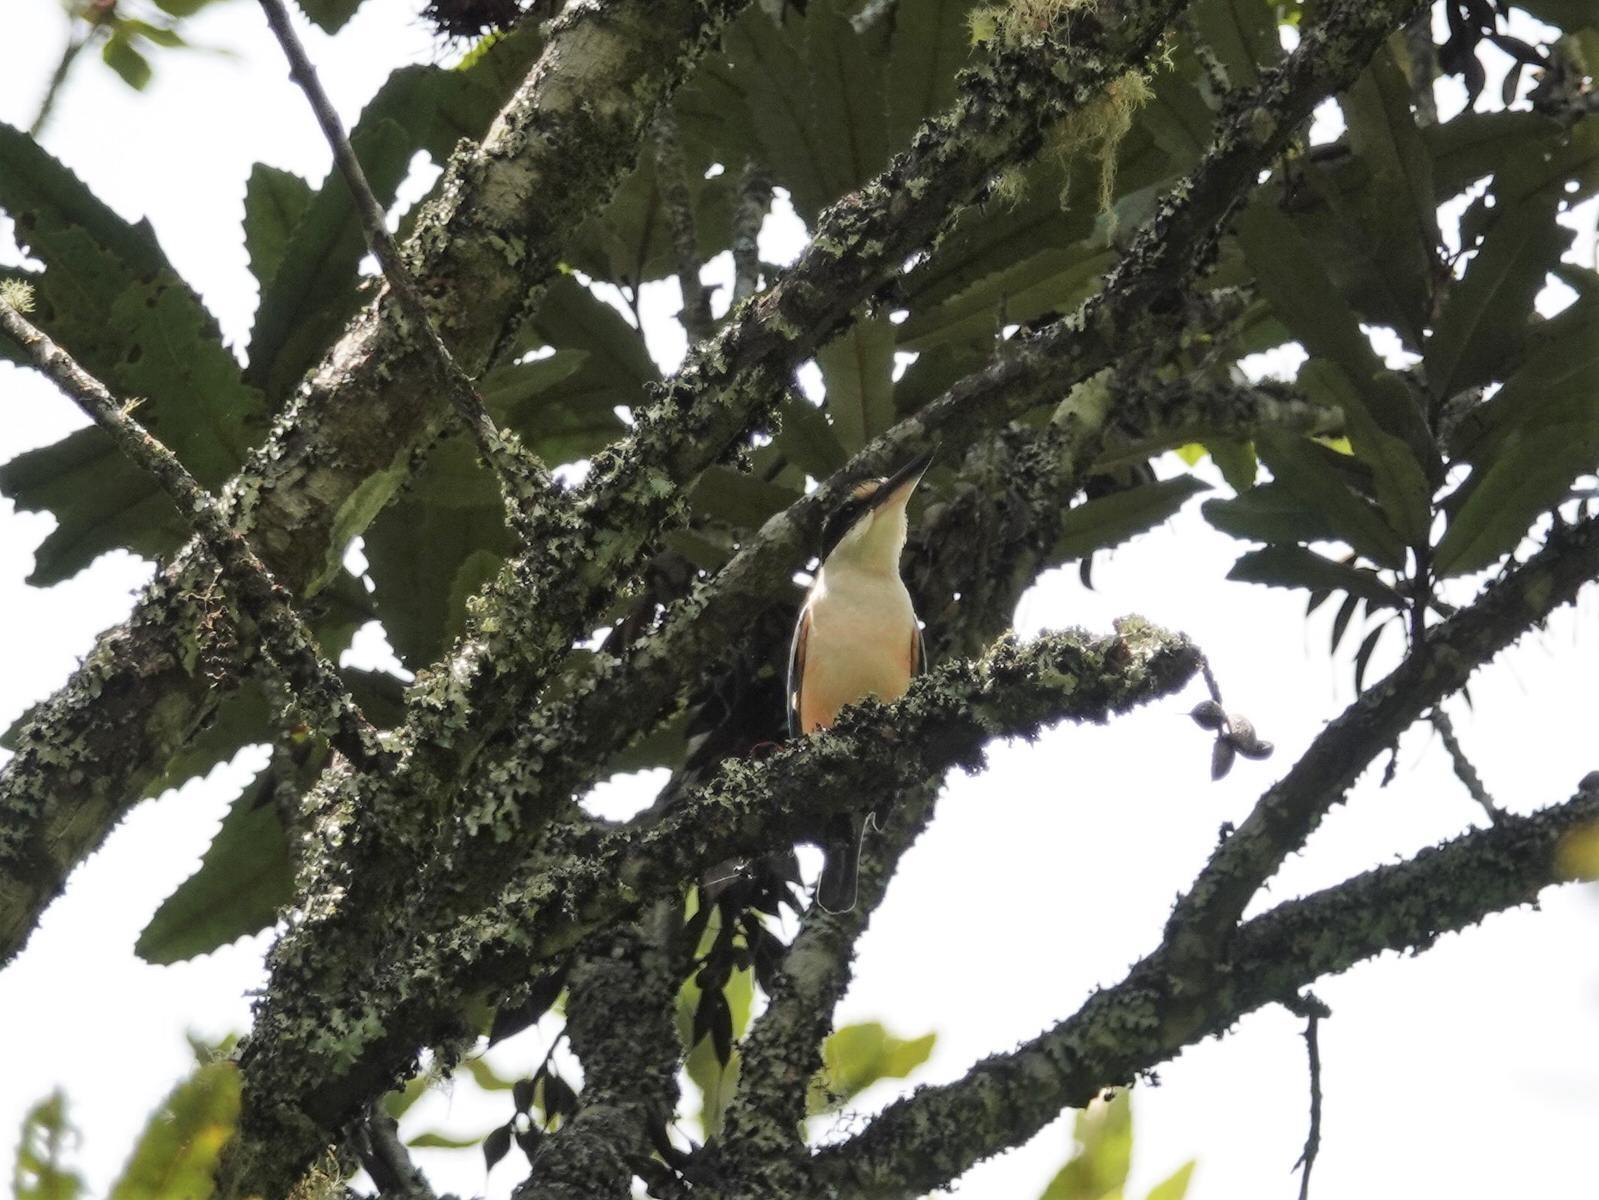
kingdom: Animalia
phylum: Chordata
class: Aves
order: Coraciiformes
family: Alcedinidae
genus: Todiramphus
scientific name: Todiramphus sanctus
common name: Sacred kingfisher
